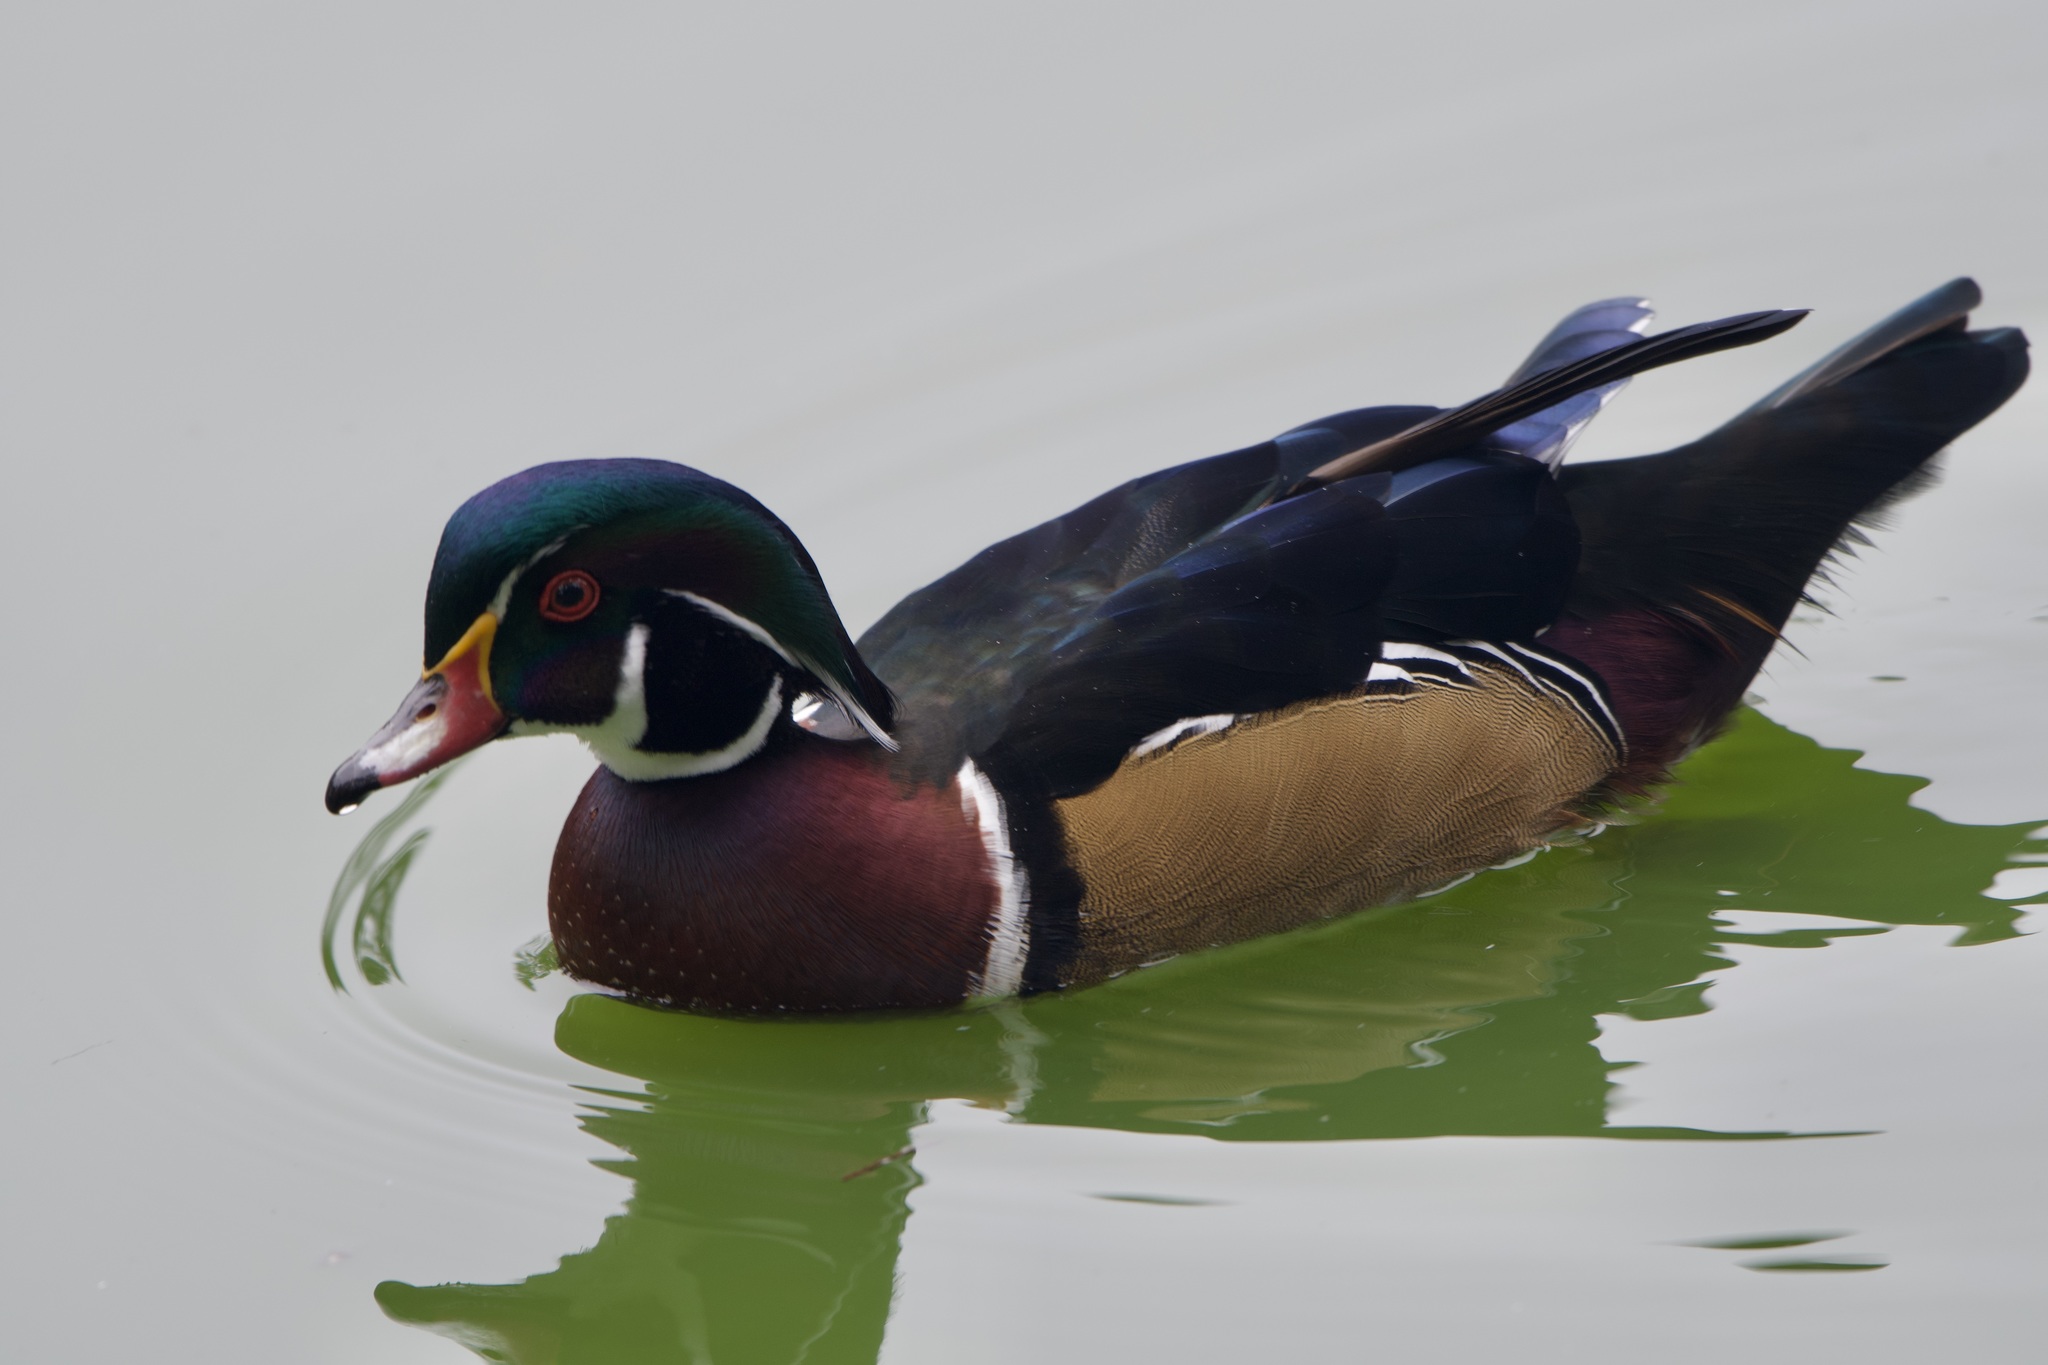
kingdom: Animalia
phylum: Chordata
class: Aves
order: Anseriformes
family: Anatidae
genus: Aix
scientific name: Aix sponsa
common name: Wood duck
